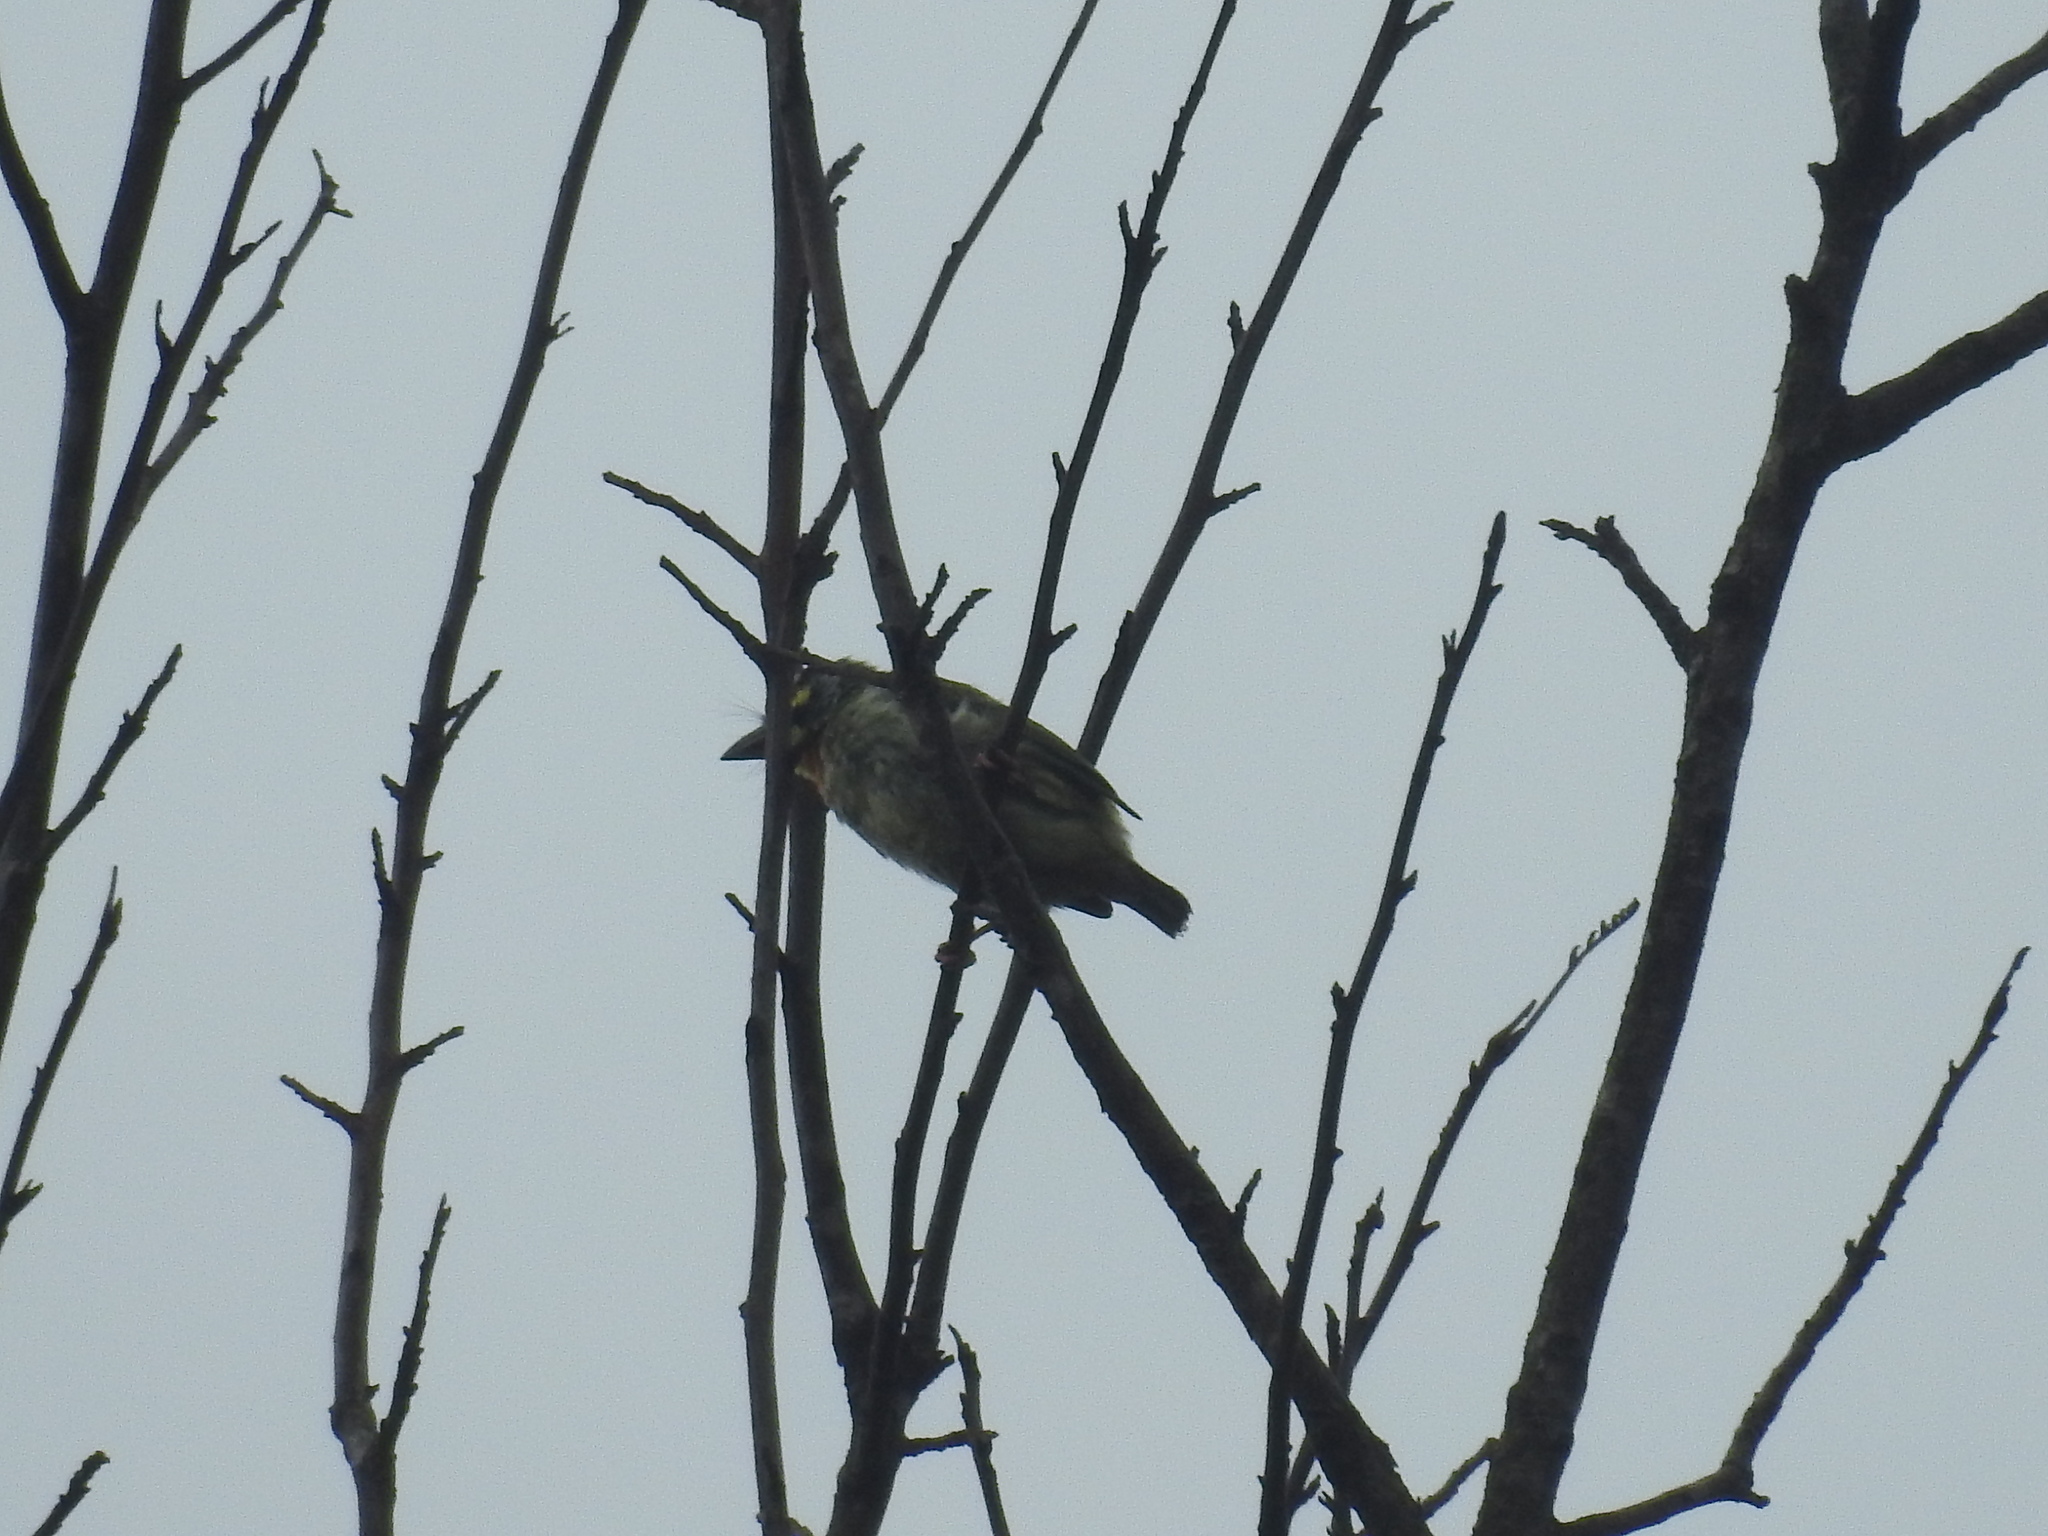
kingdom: Animalia
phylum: Chordata
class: Aves
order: Piciformes
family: Megalaimidae
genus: Psilopogon
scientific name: Psilopogon haemacephalus
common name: Coppersmith barbet
